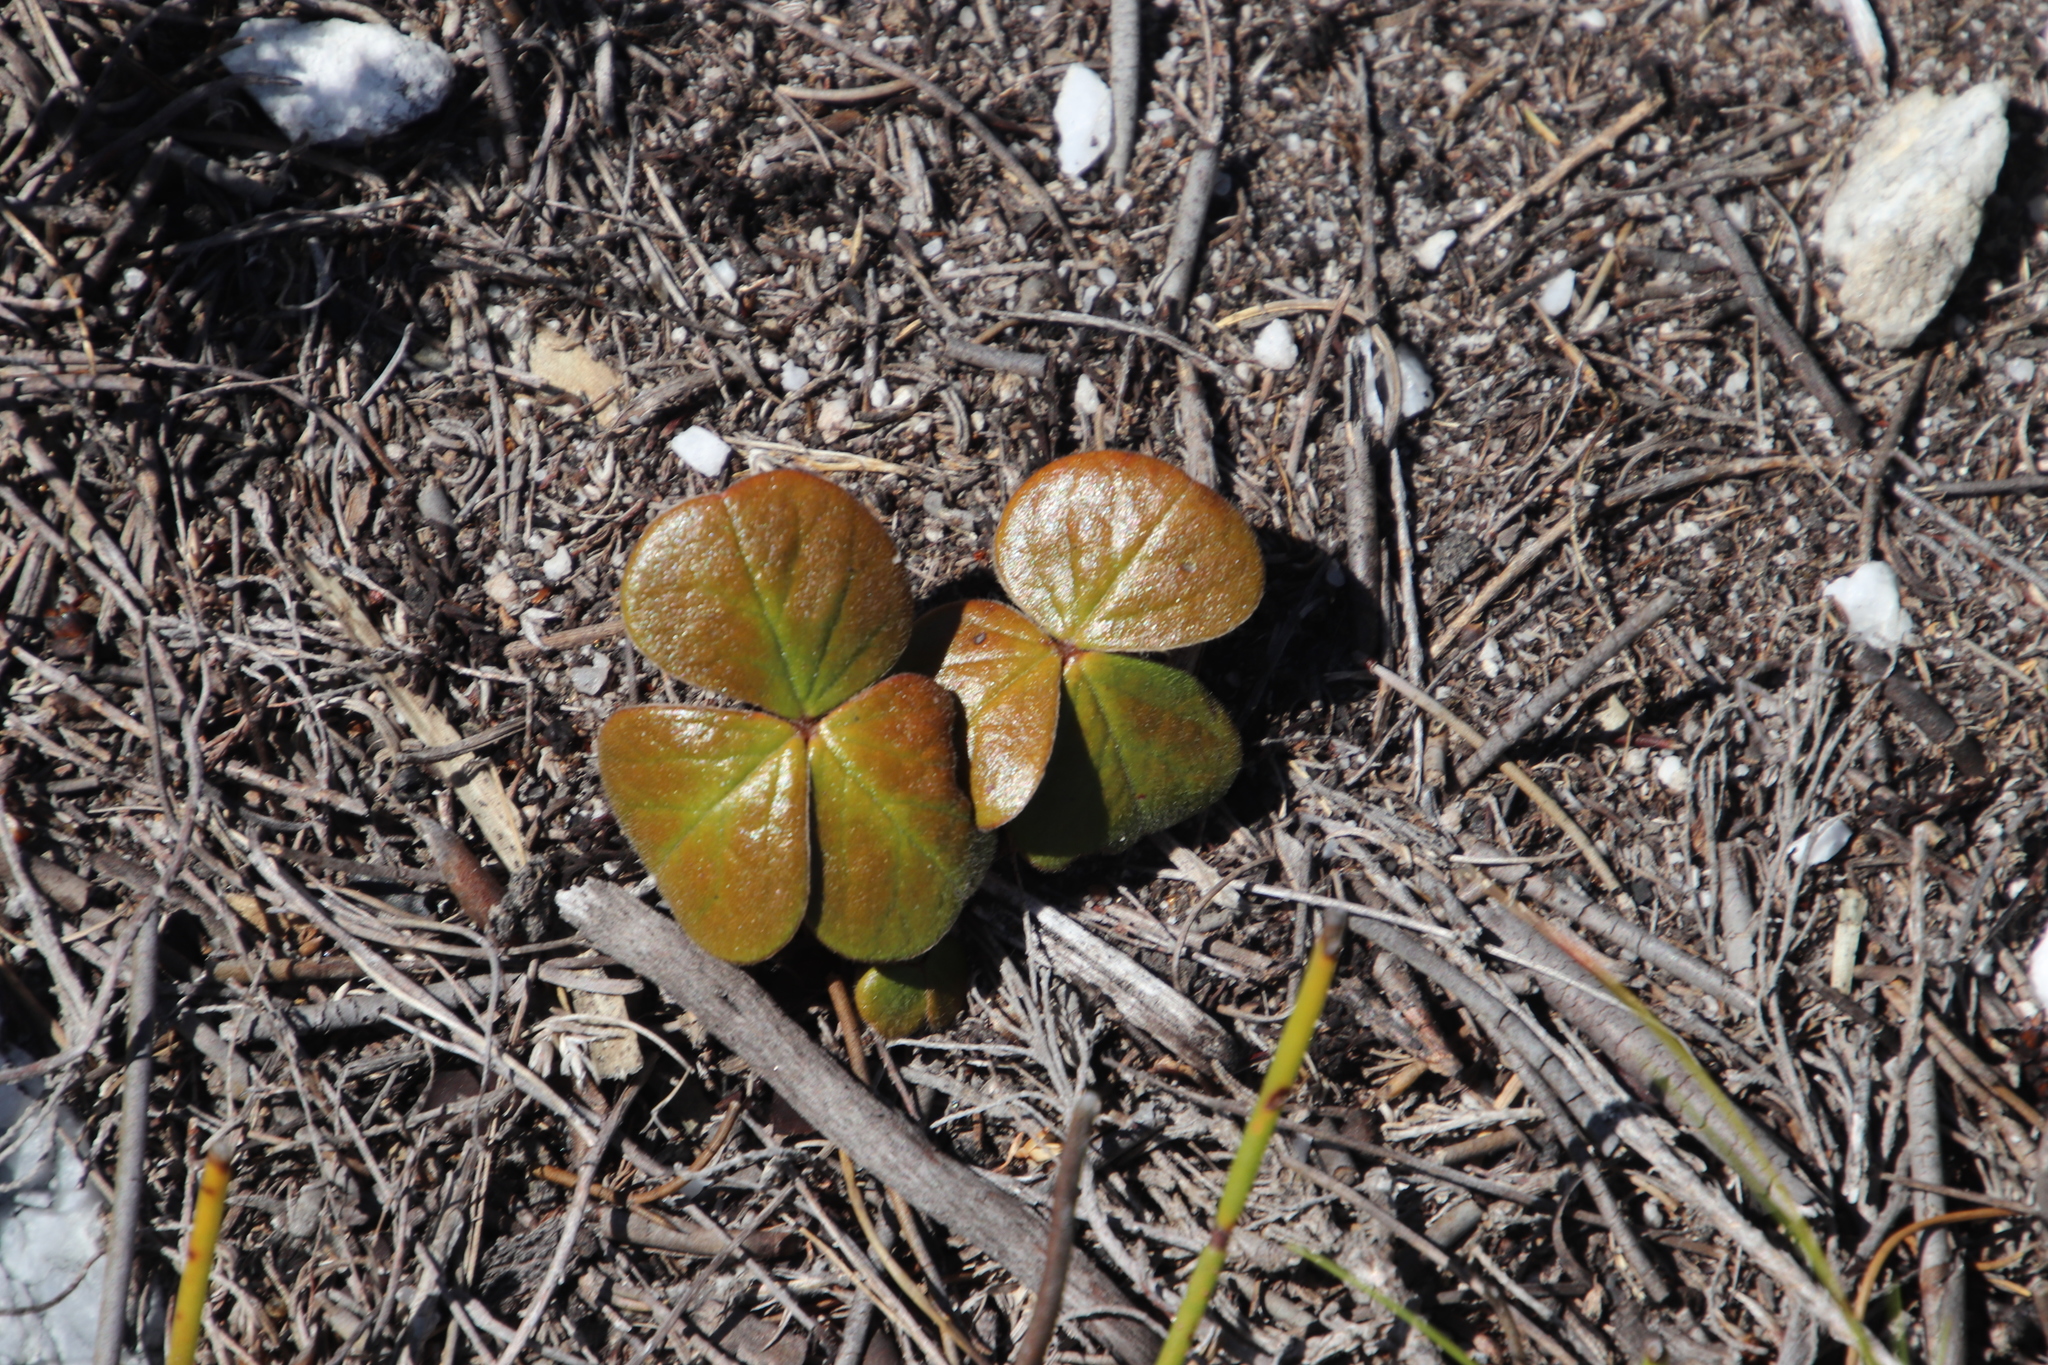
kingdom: Plantae
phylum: Tracheophyta
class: Magnoliopsida
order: Oxalidales
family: Oxalidaceae
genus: Oxalis
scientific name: Oxalis truncatula
